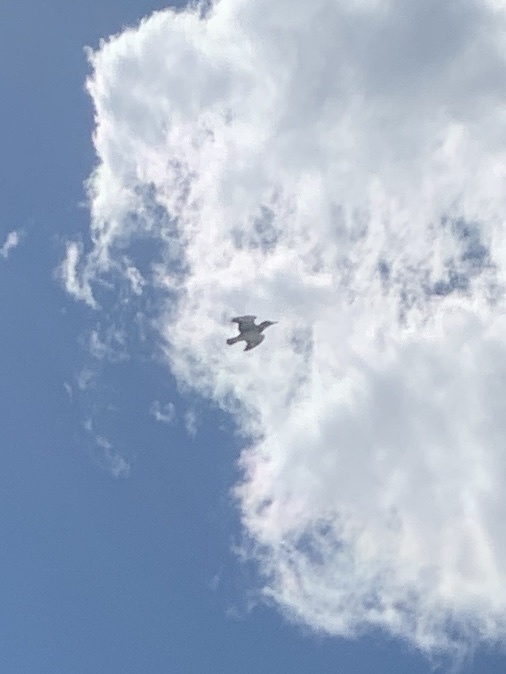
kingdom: Animalia
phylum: Chordata
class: Aves
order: Coraciiformes
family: Alcedinidae
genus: Megaceryle
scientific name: Megaceryle alcyon
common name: Belted kingfisher
